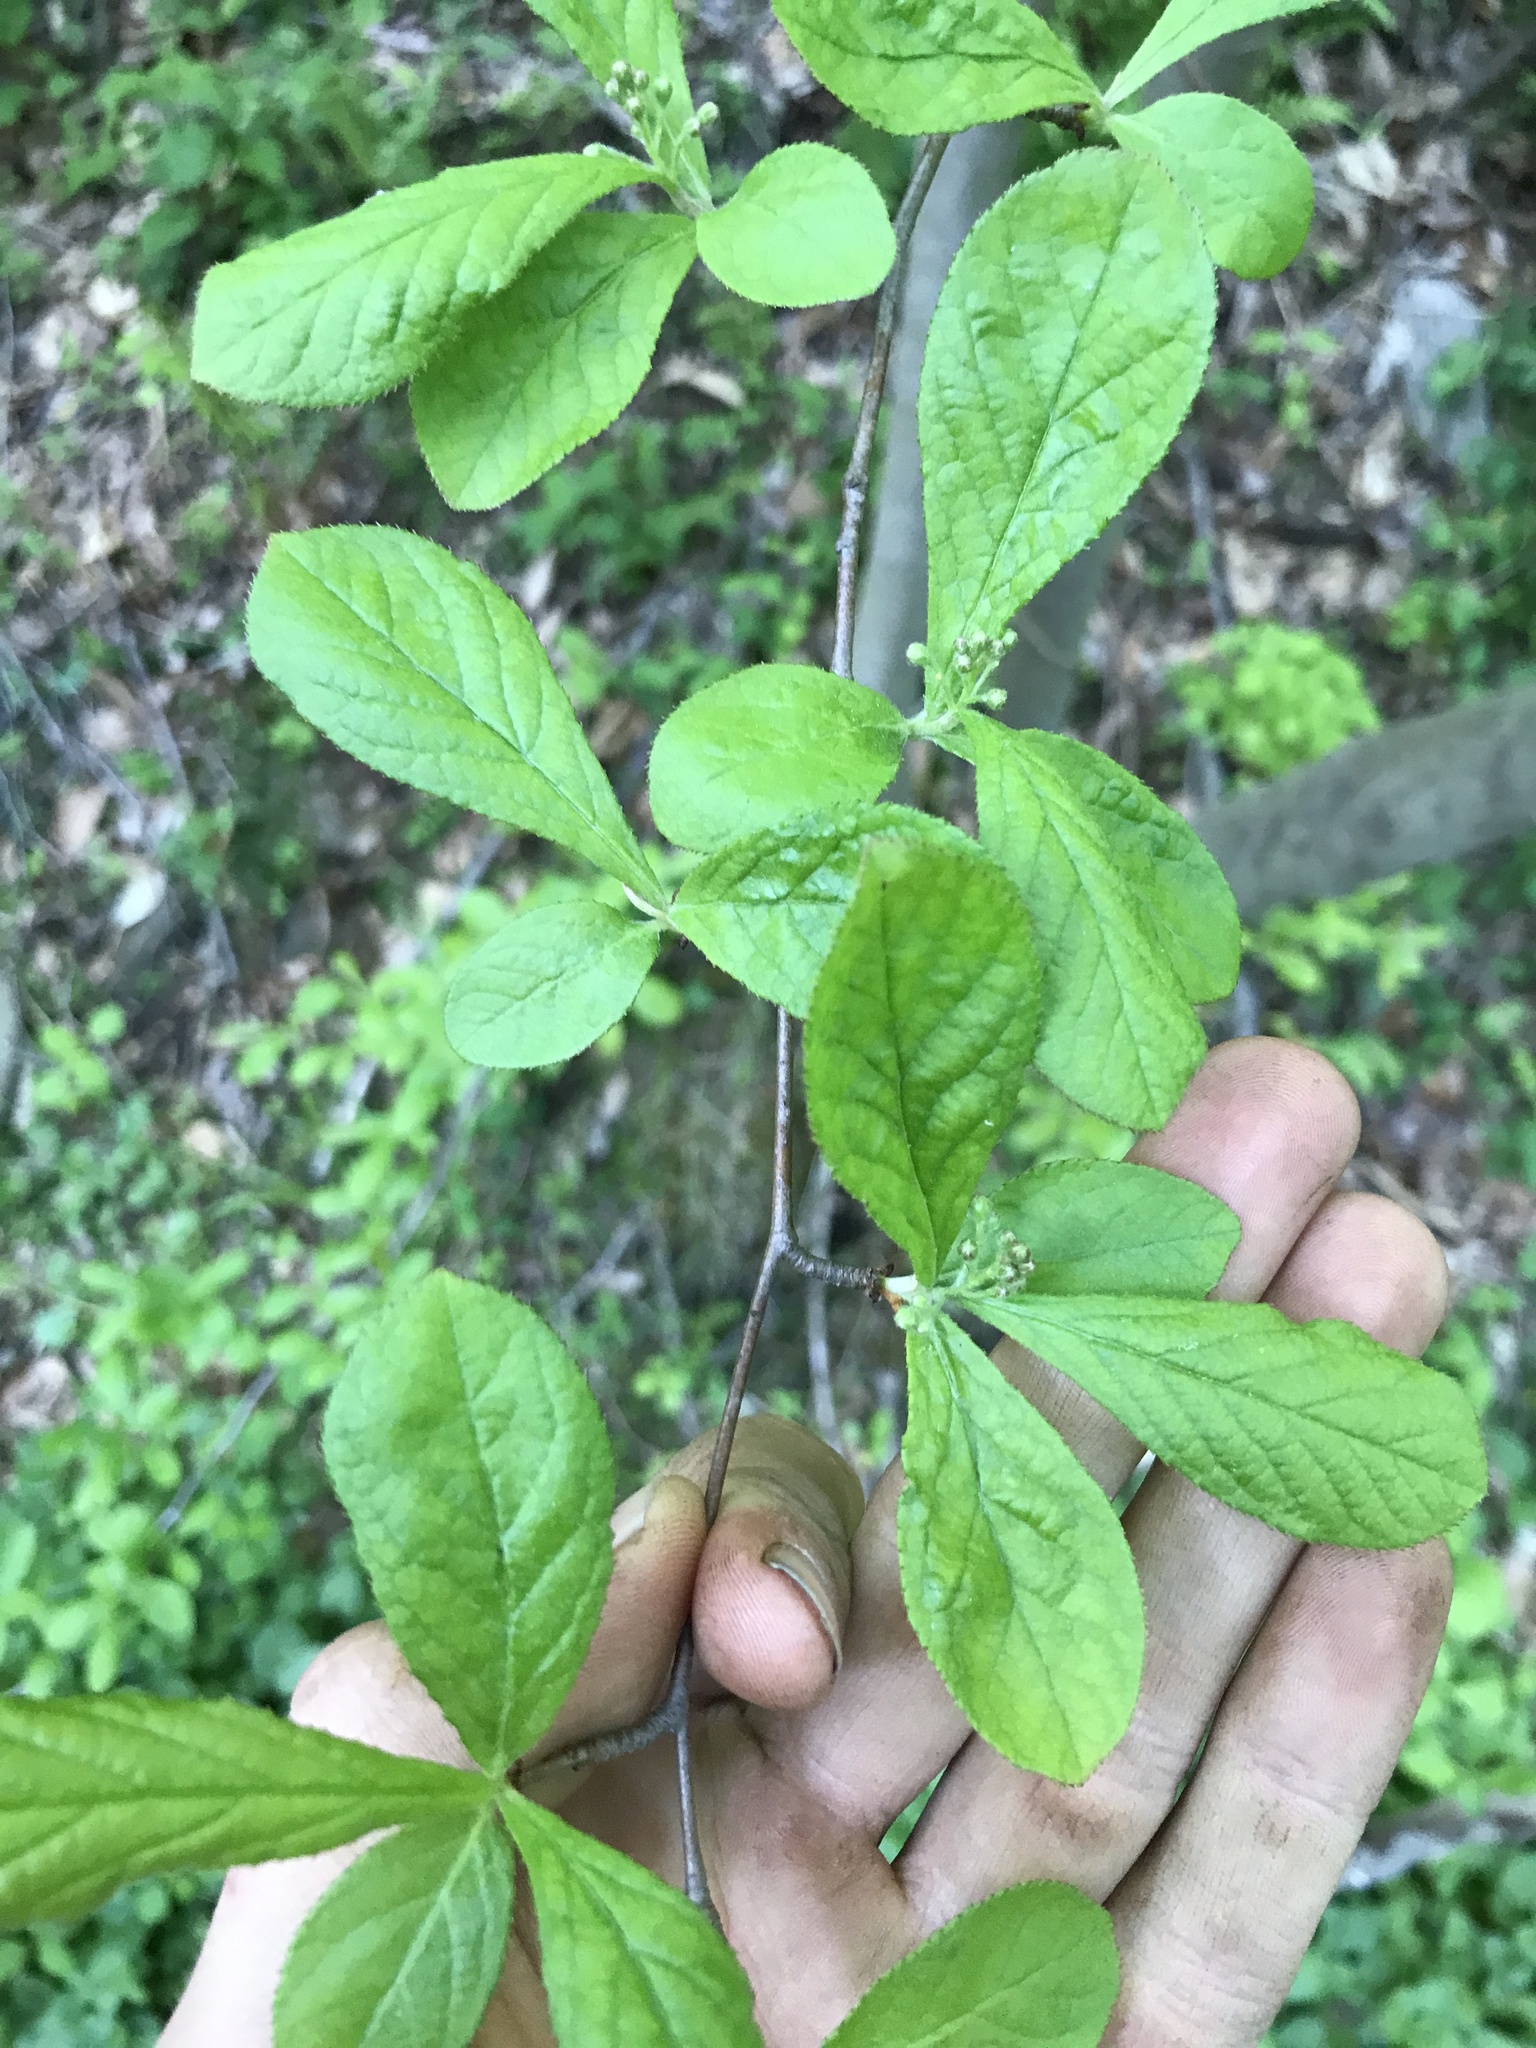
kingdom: Plantae
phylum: Tracheophyta
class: Magnoliopsida
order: Rosales
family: Rosaceae
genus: Pourthiaea
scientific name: Pourthiaea villosa
